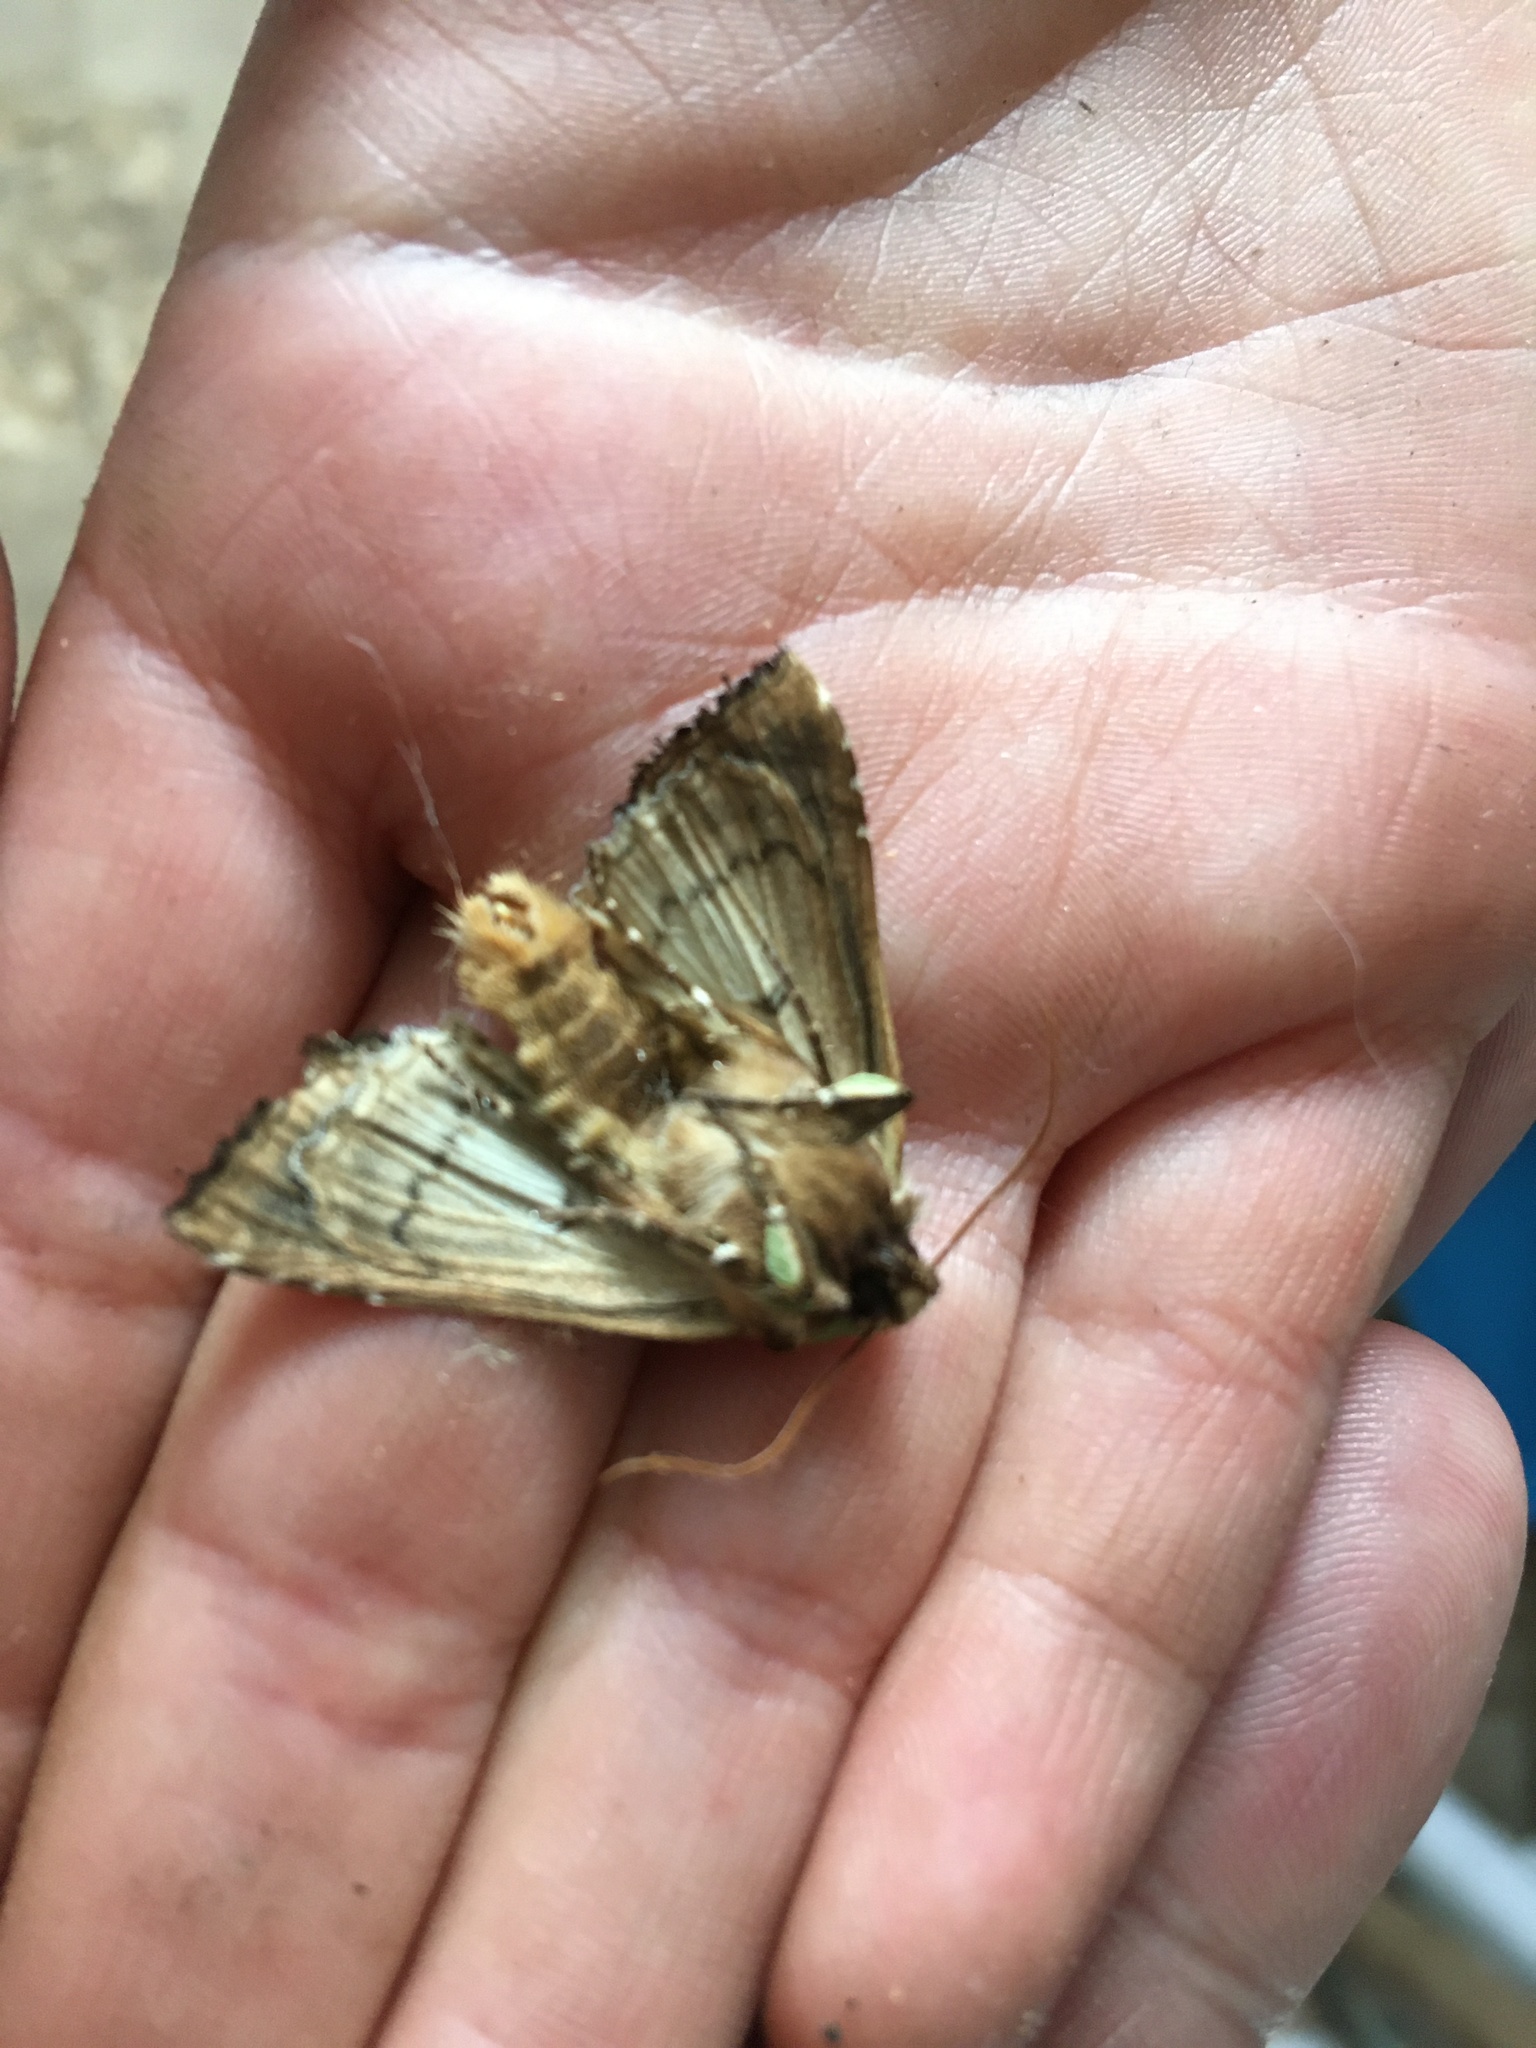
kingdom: Animalia
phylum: Arthropoda
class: Insecta
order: Lepidoptera
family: Noctuidae
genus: Staurophora
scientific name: Staurophora celsia
